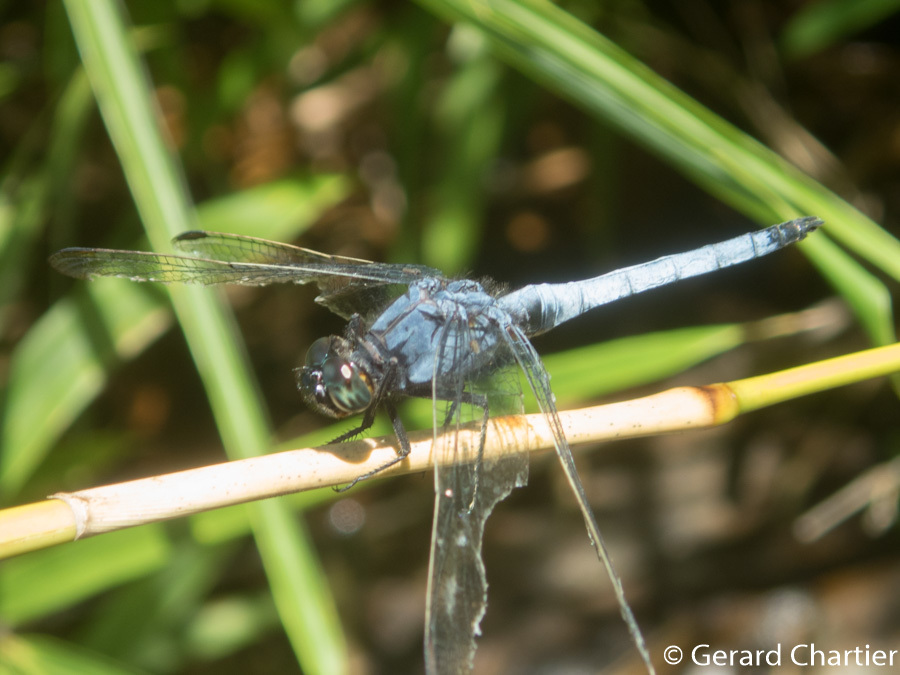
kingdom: Animalia
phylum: Arthropoda
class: Insecta
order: Odonata
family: Libellulidae
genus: Orthetrum
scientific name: Orthetrum glaucum
